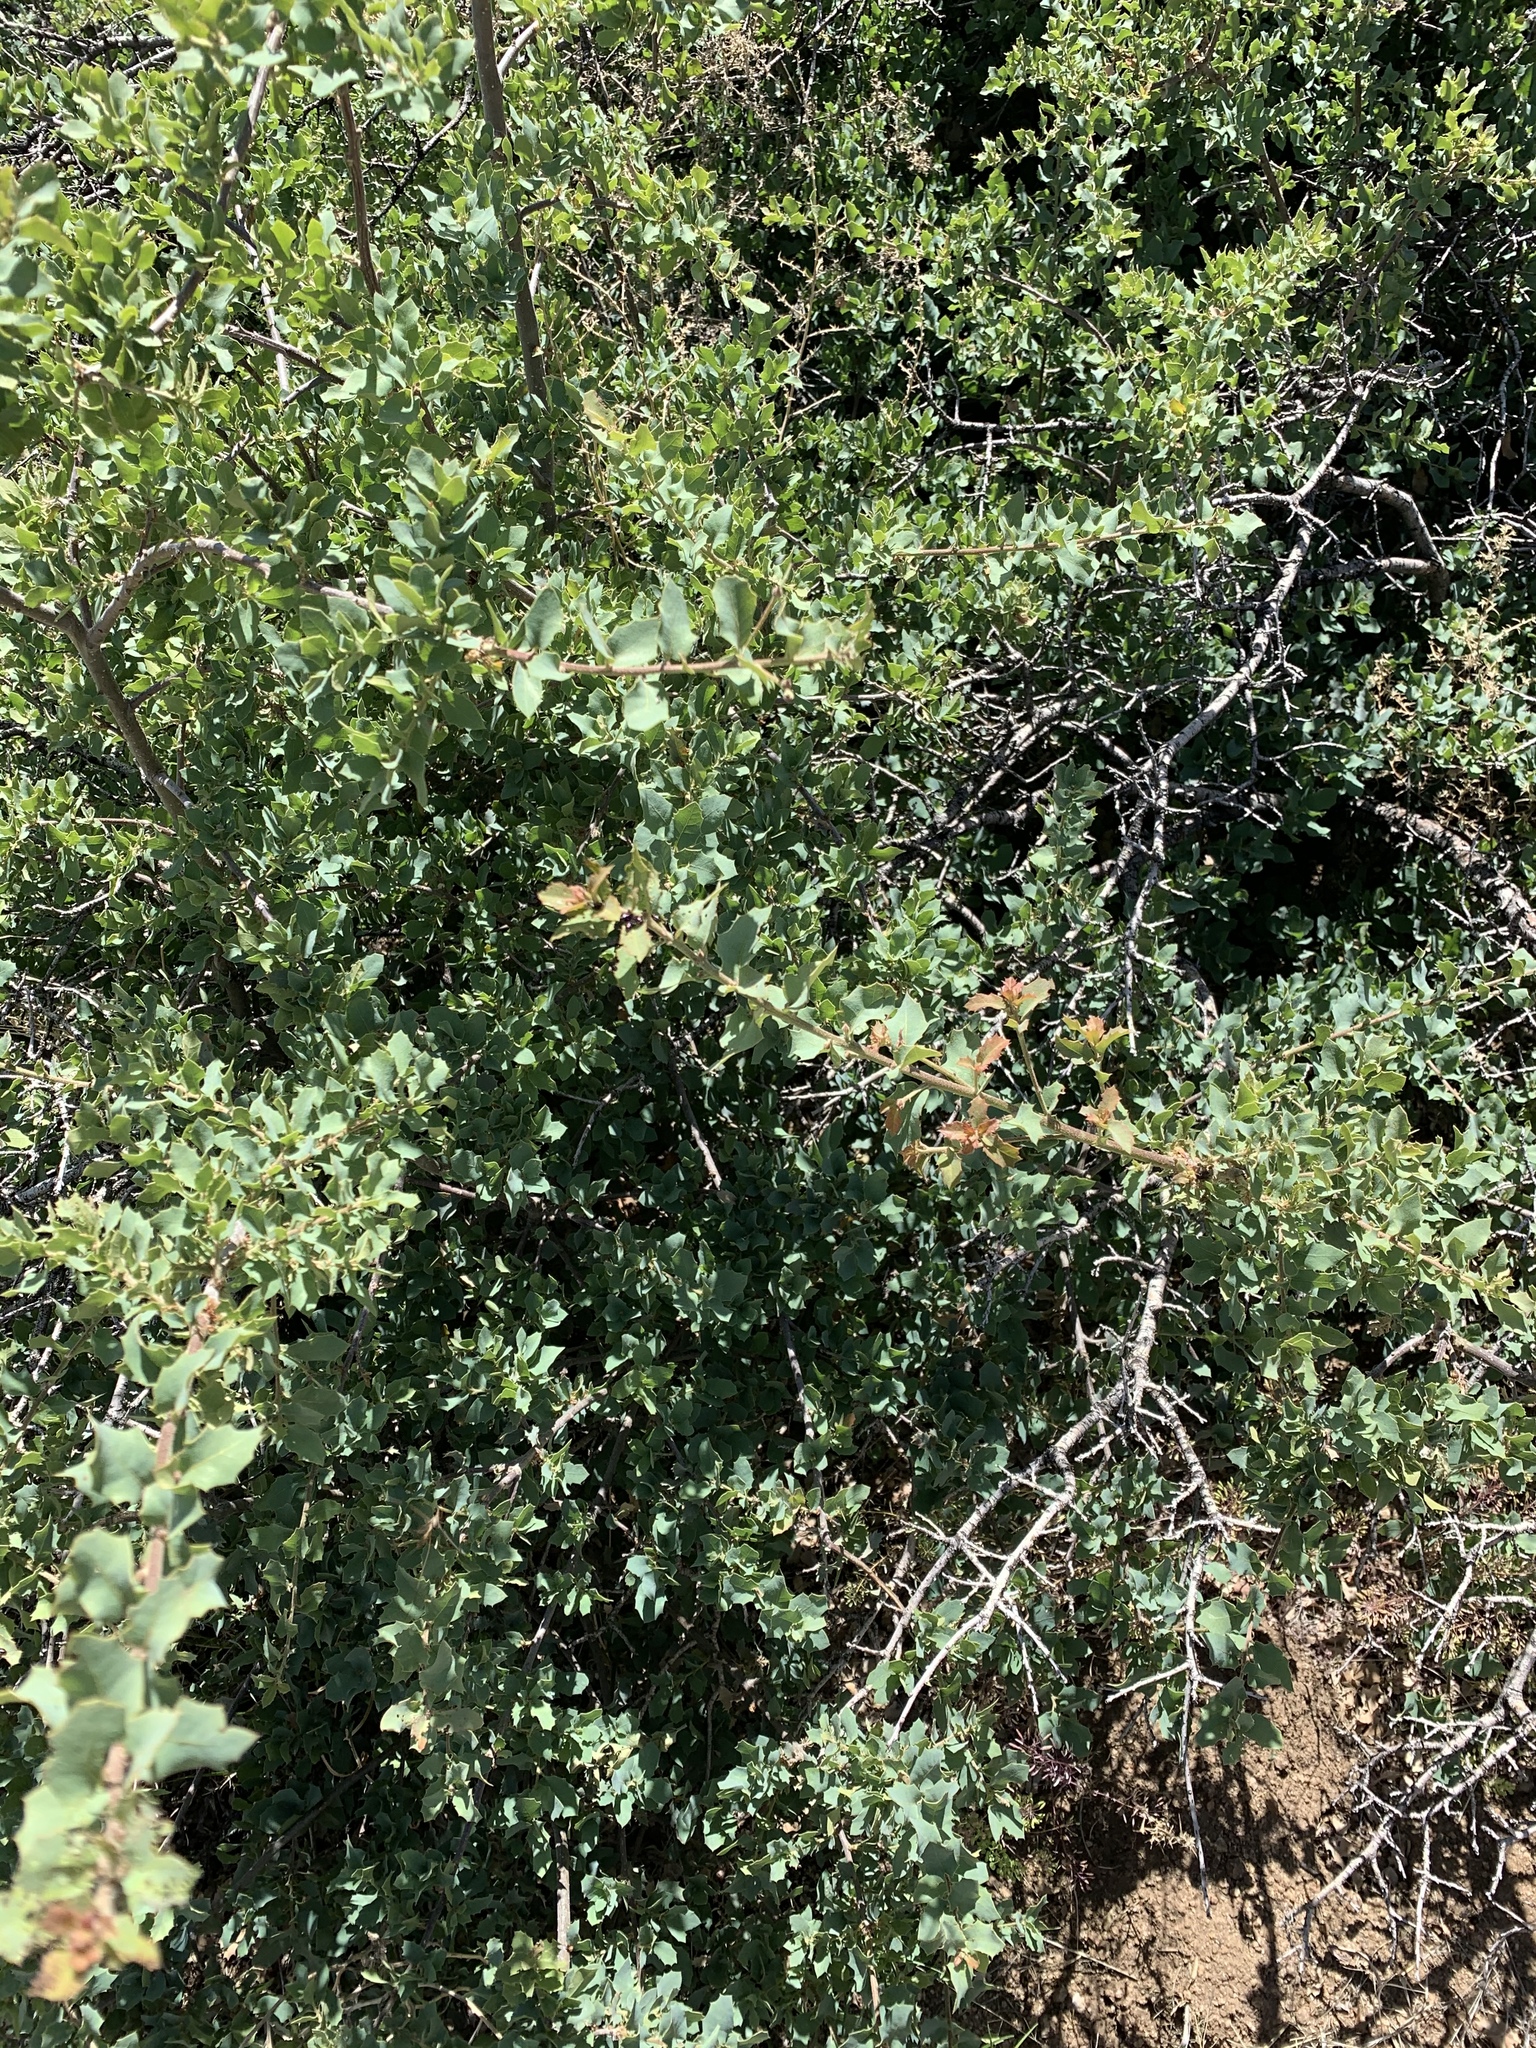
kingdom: Plantae
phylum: Tracheophyta
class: Magnoliopsida
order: Fagales
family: Fagaceae
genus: Quercus
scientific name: Quercus turbinella
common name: Sonoran scrub oak
